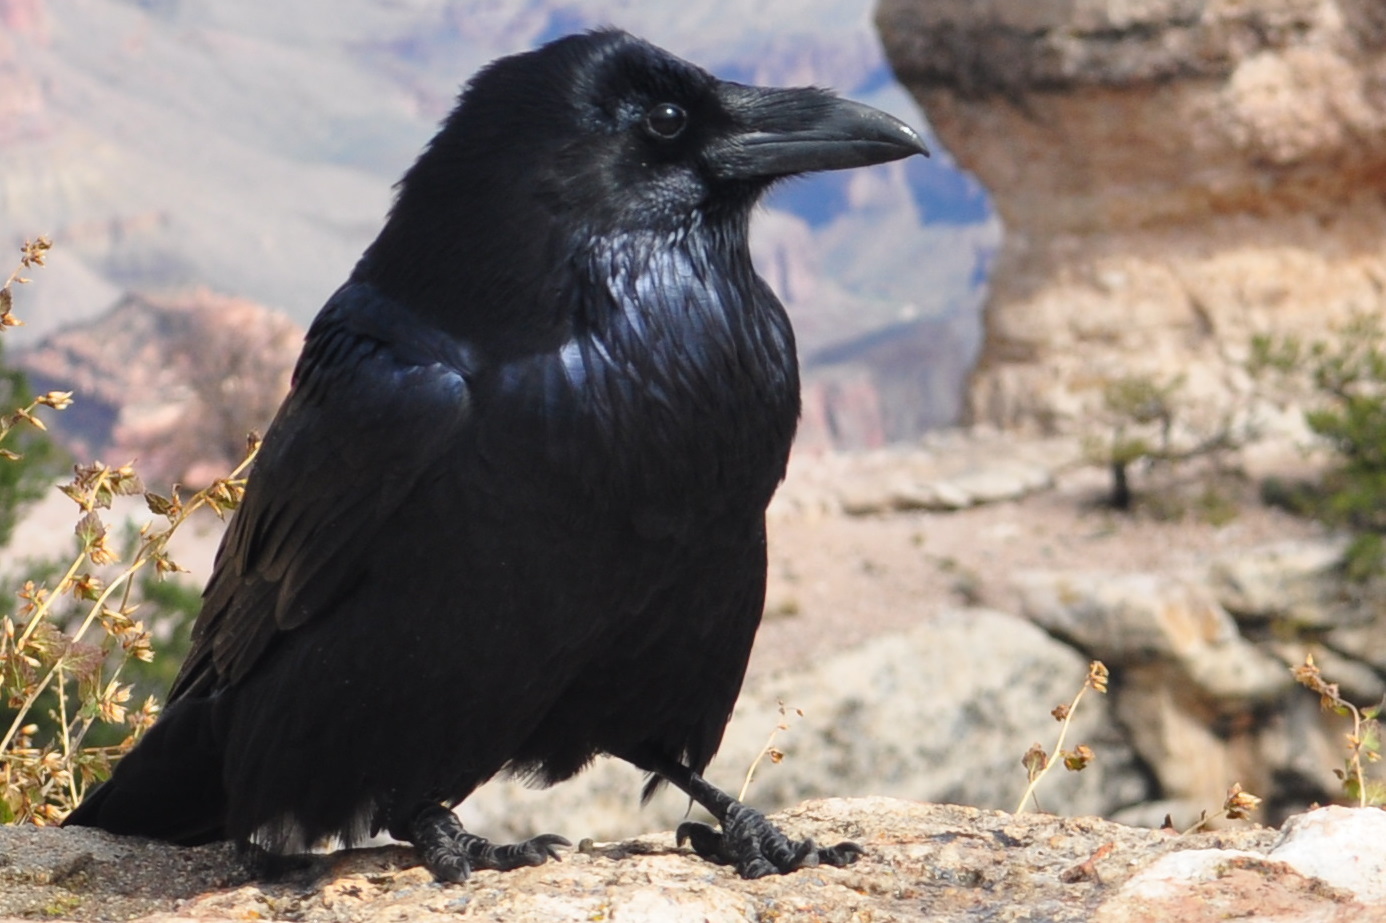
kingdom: Animalia
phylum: Chordata
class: Aves
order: Passeriformes
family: Corvidae
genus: Corvus
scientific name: Corvus corax
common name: Common raven
